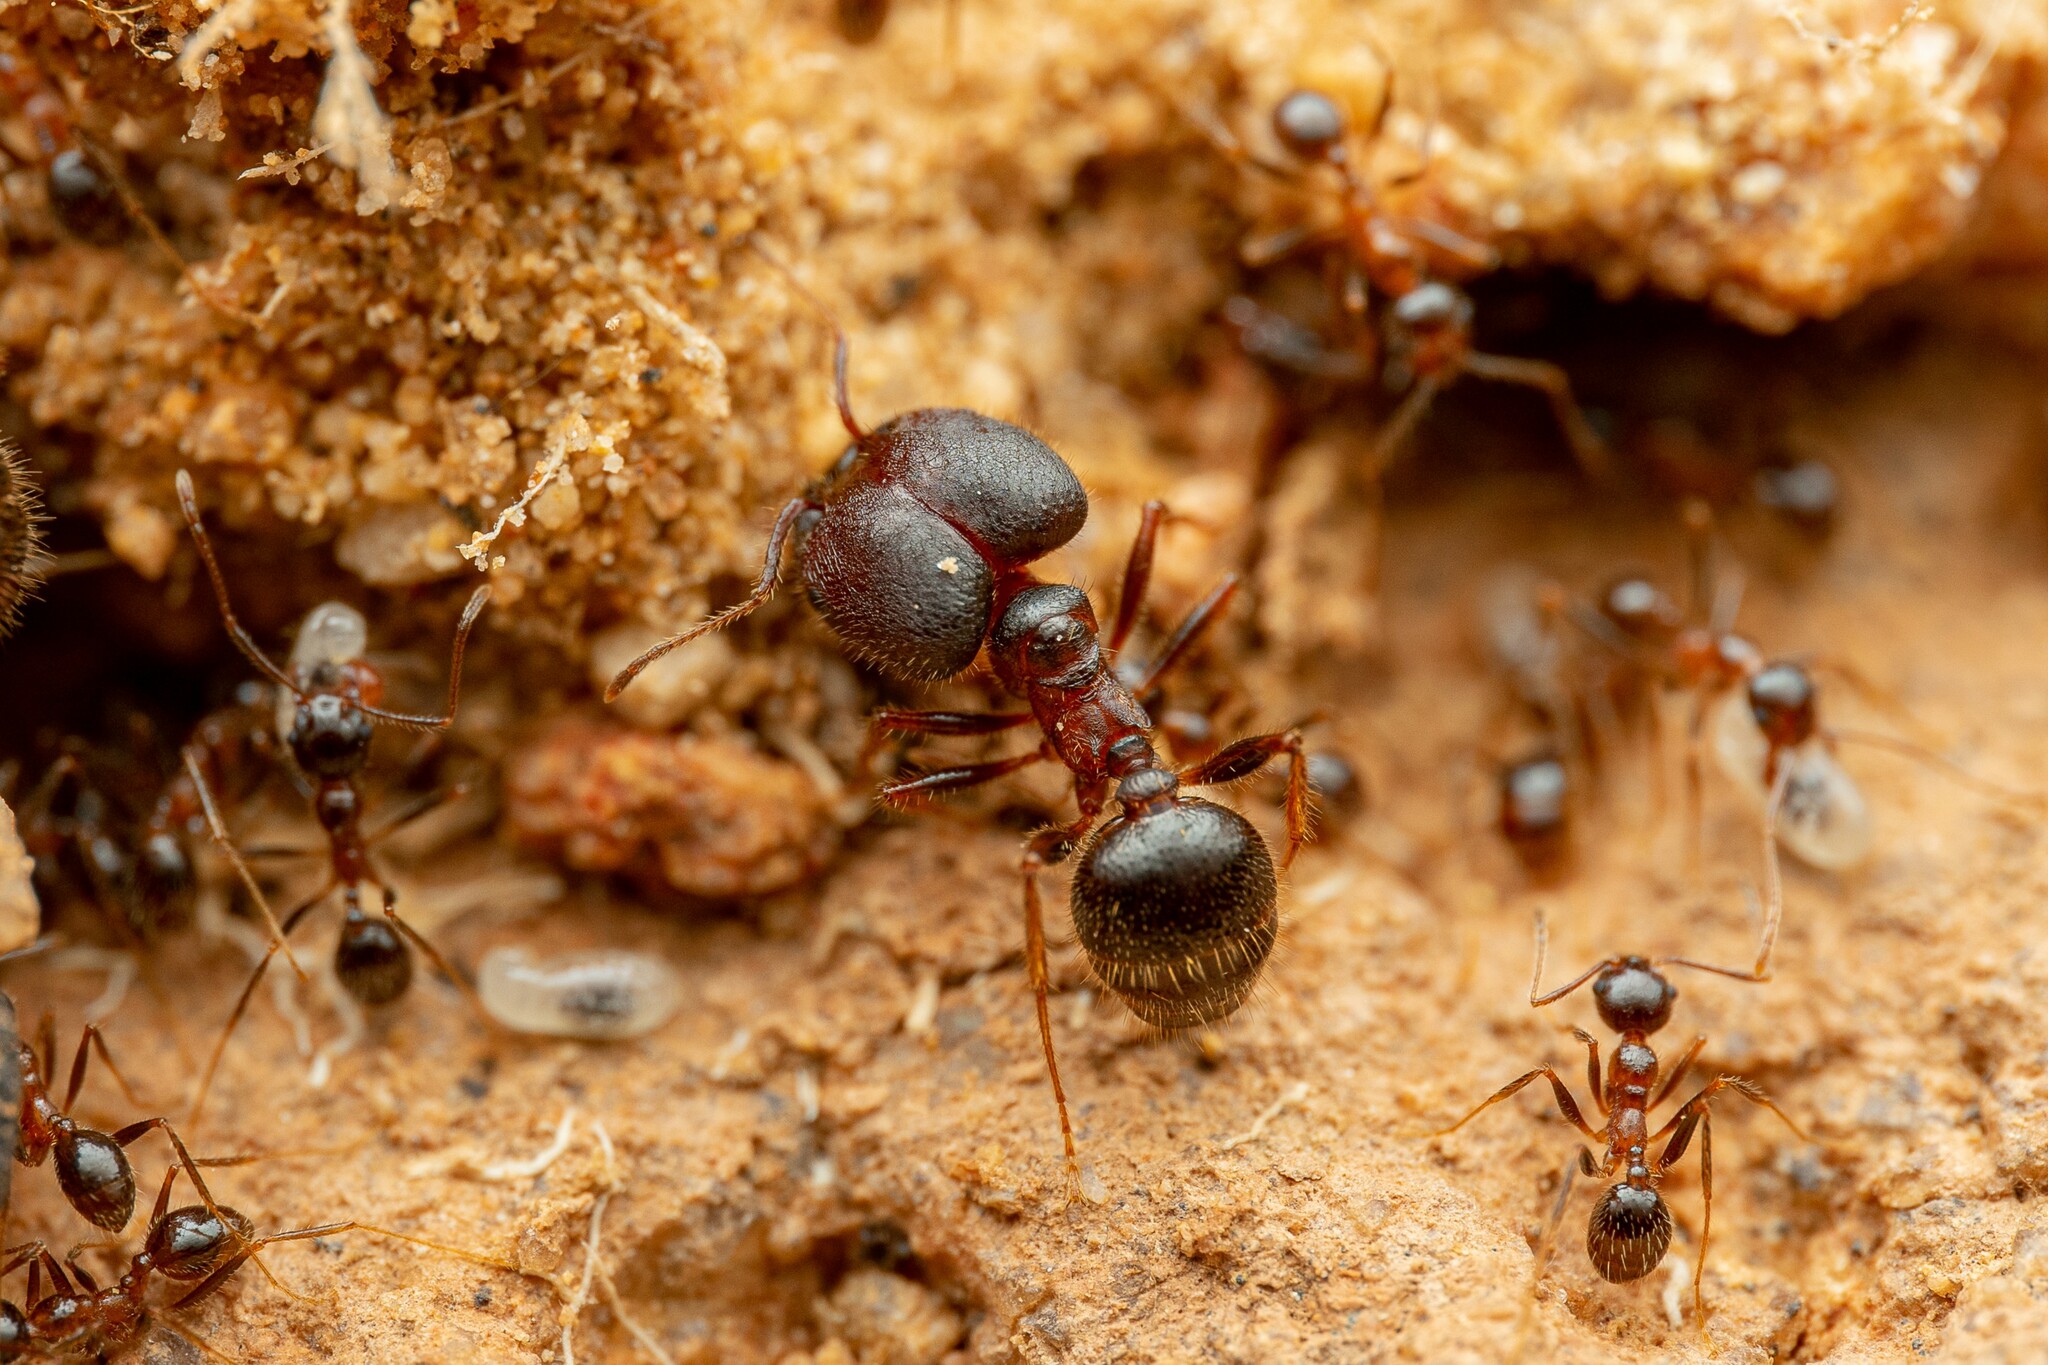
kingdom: Animalia
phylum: Arthropoda
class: Insecta
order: Hymenoptera
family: Formicidae
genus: Pheidole
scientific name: Pheidole obtusospinosa
